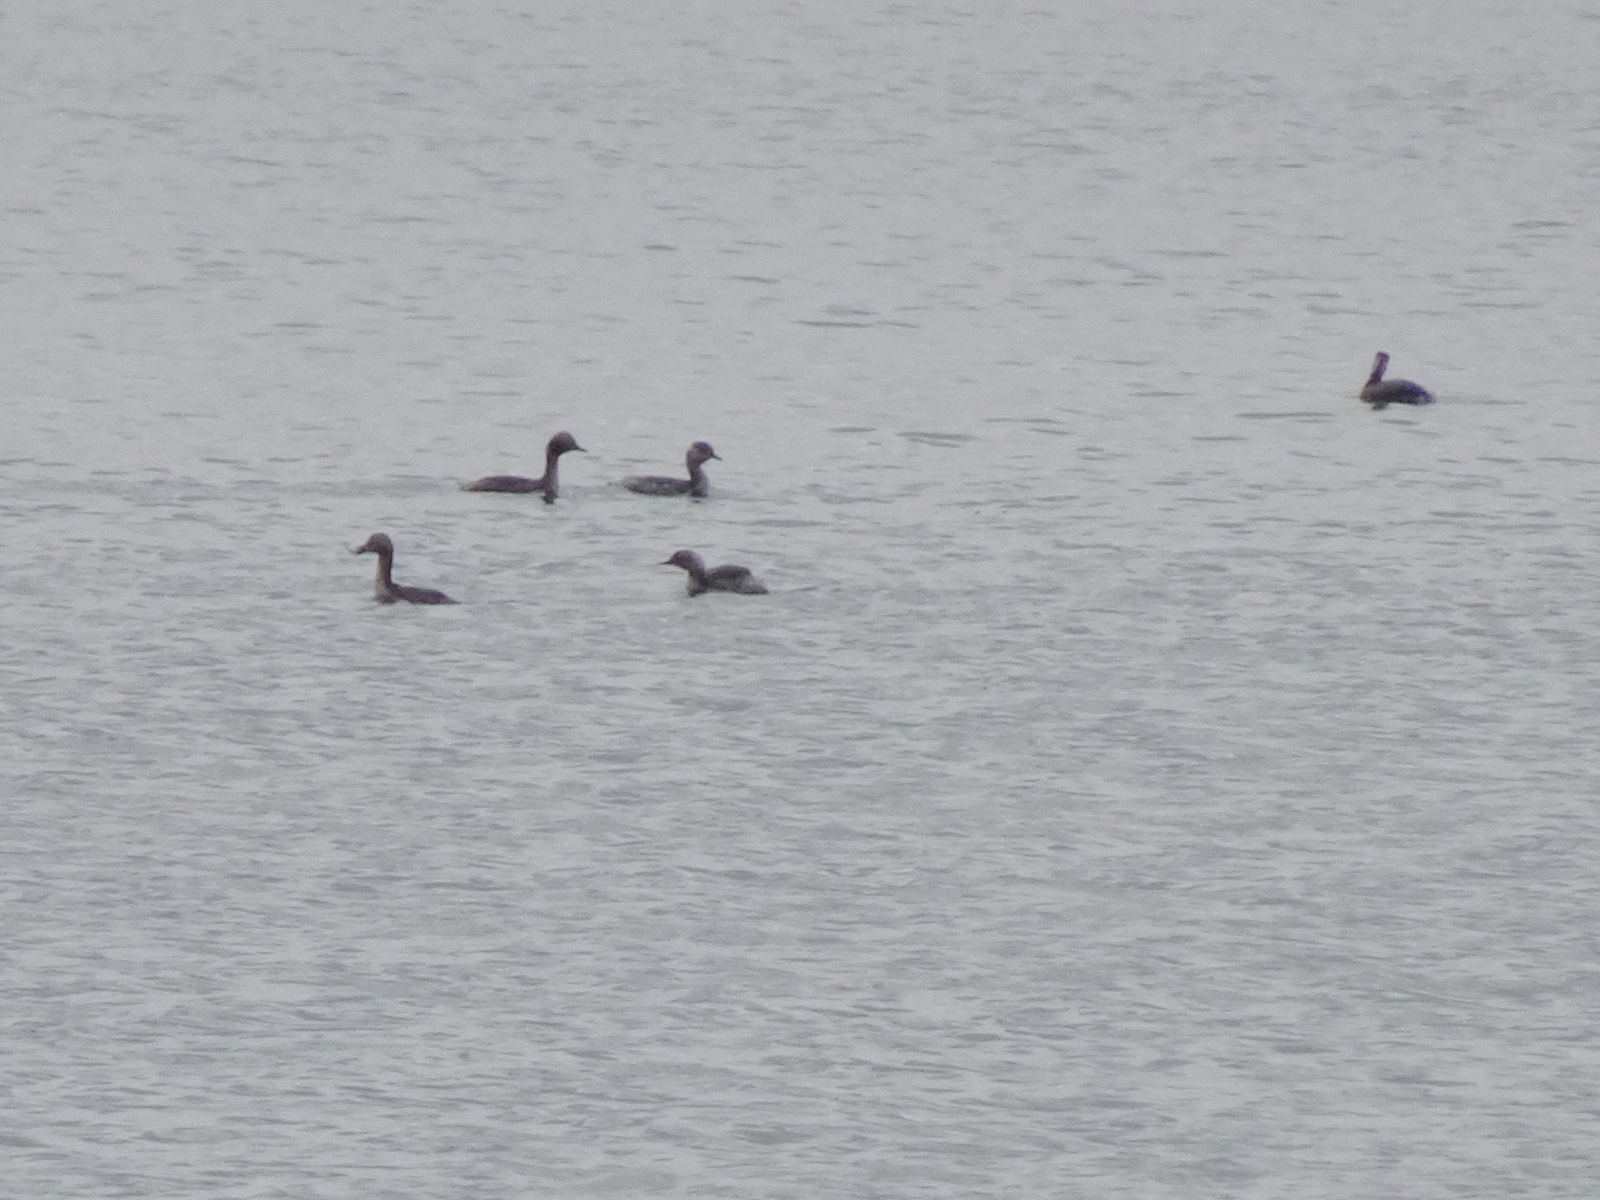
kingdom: Animalia
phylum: Chordata
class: Aves
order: Podicipediformes
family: Podicipedidae
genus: Podiceps
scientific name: Podiceps auritus
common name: Horned grebe
